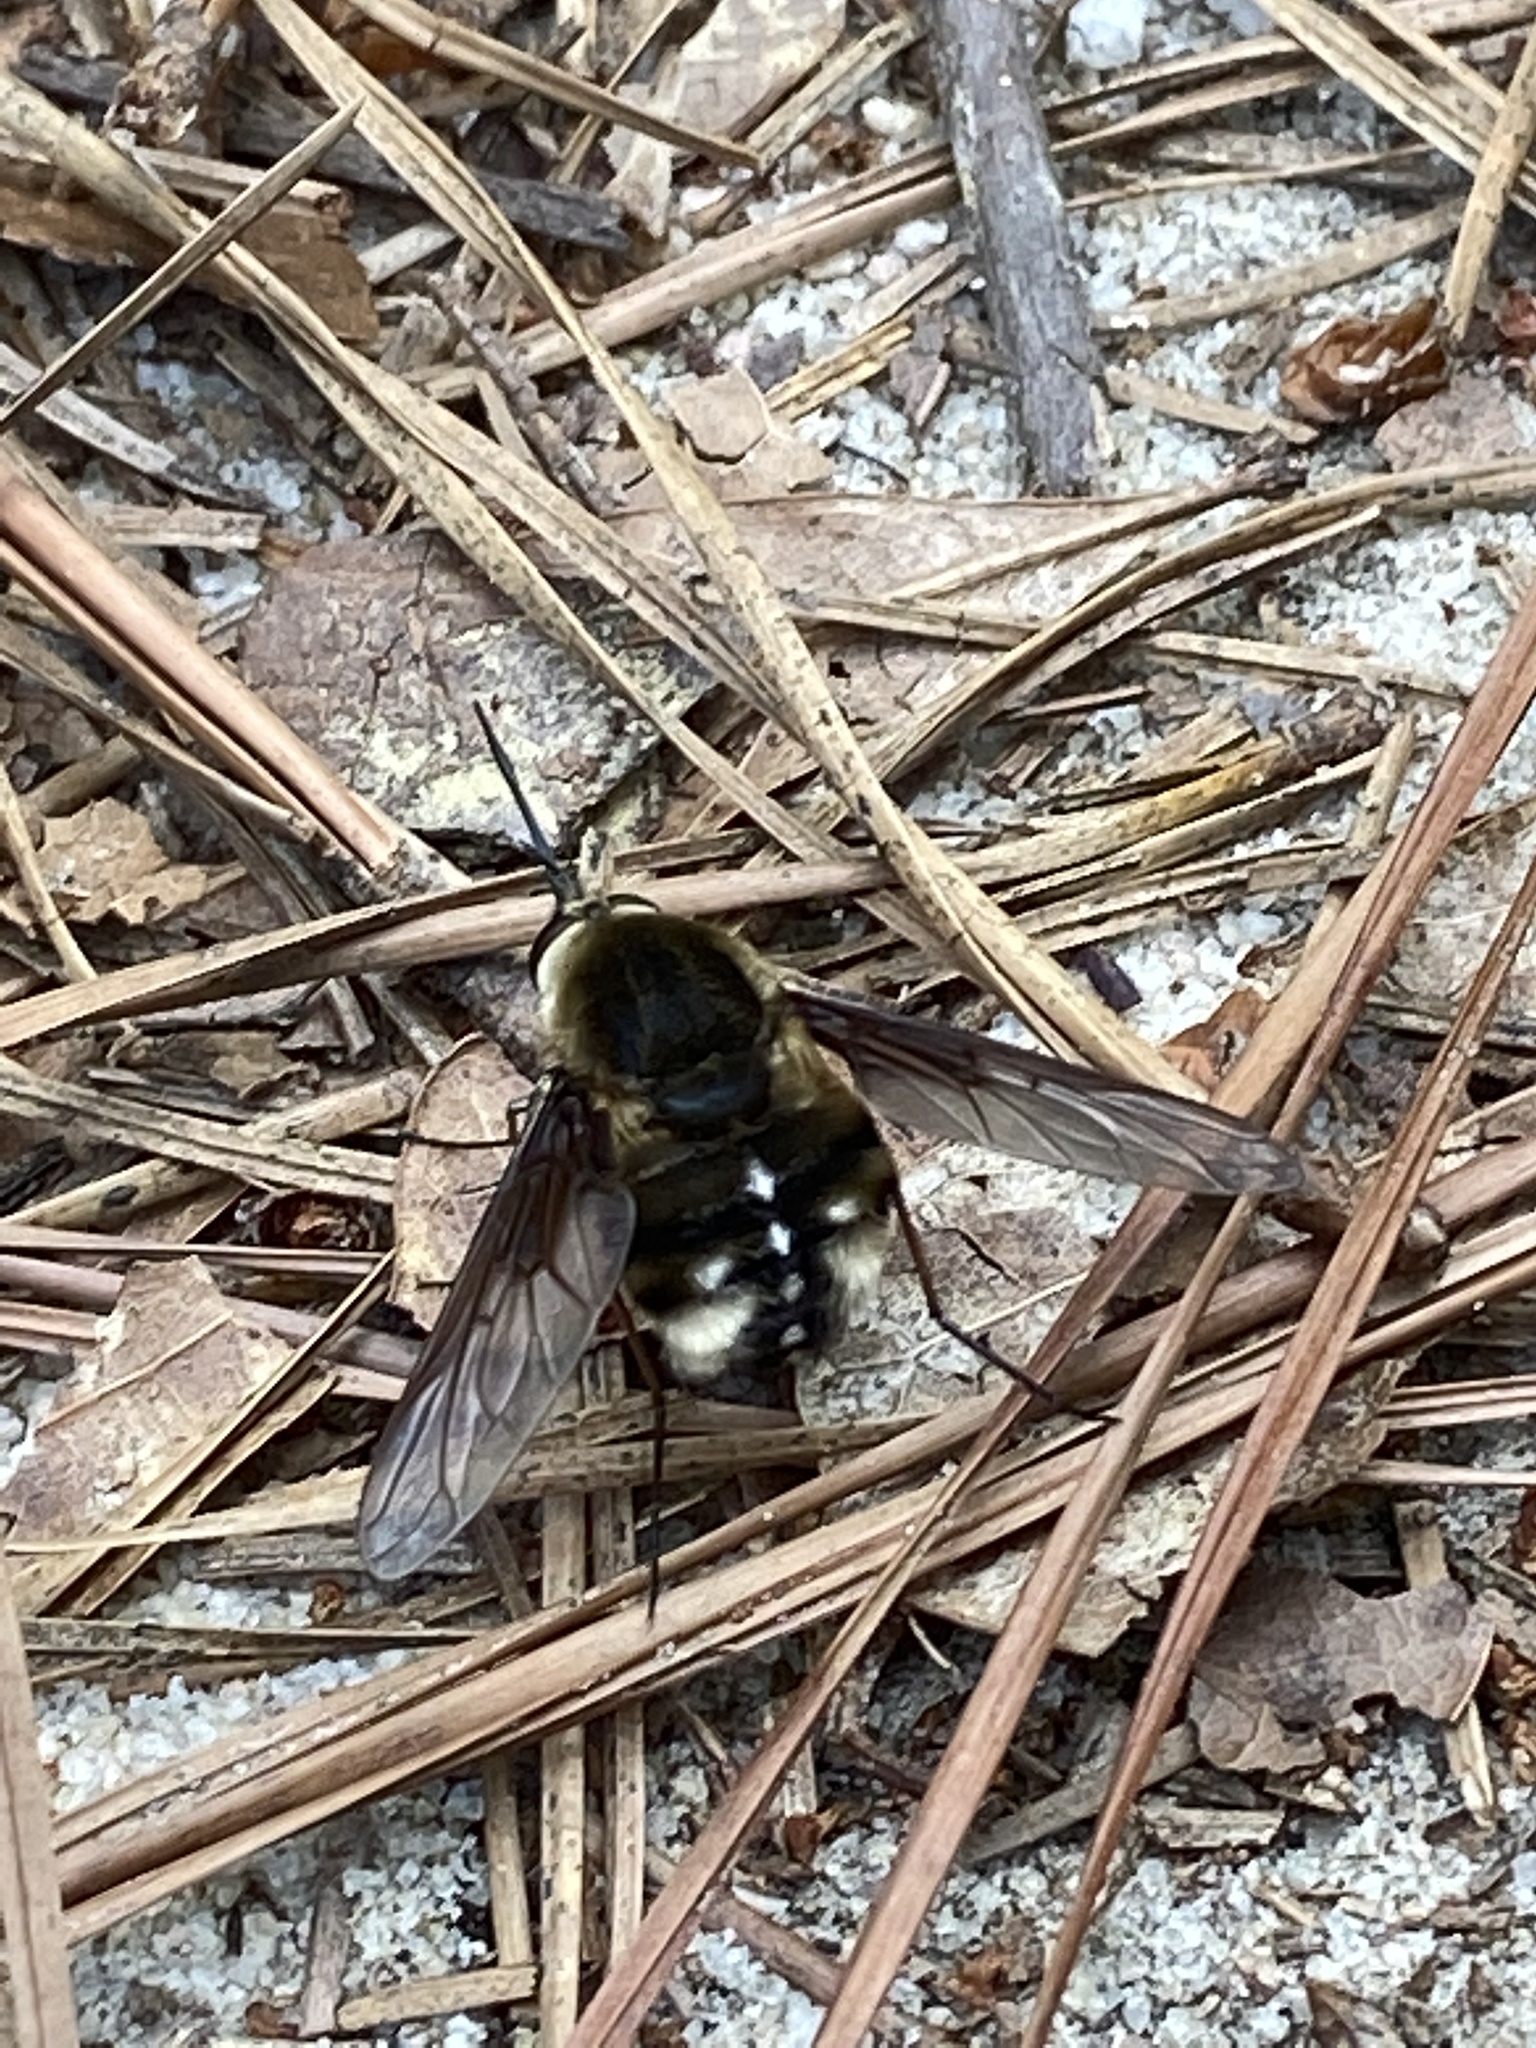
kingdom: Animalia
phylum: Arthropoda
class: Insecta
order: Diptera
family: Bombyliidae
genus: Bombylius
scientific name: Bombylius varius
